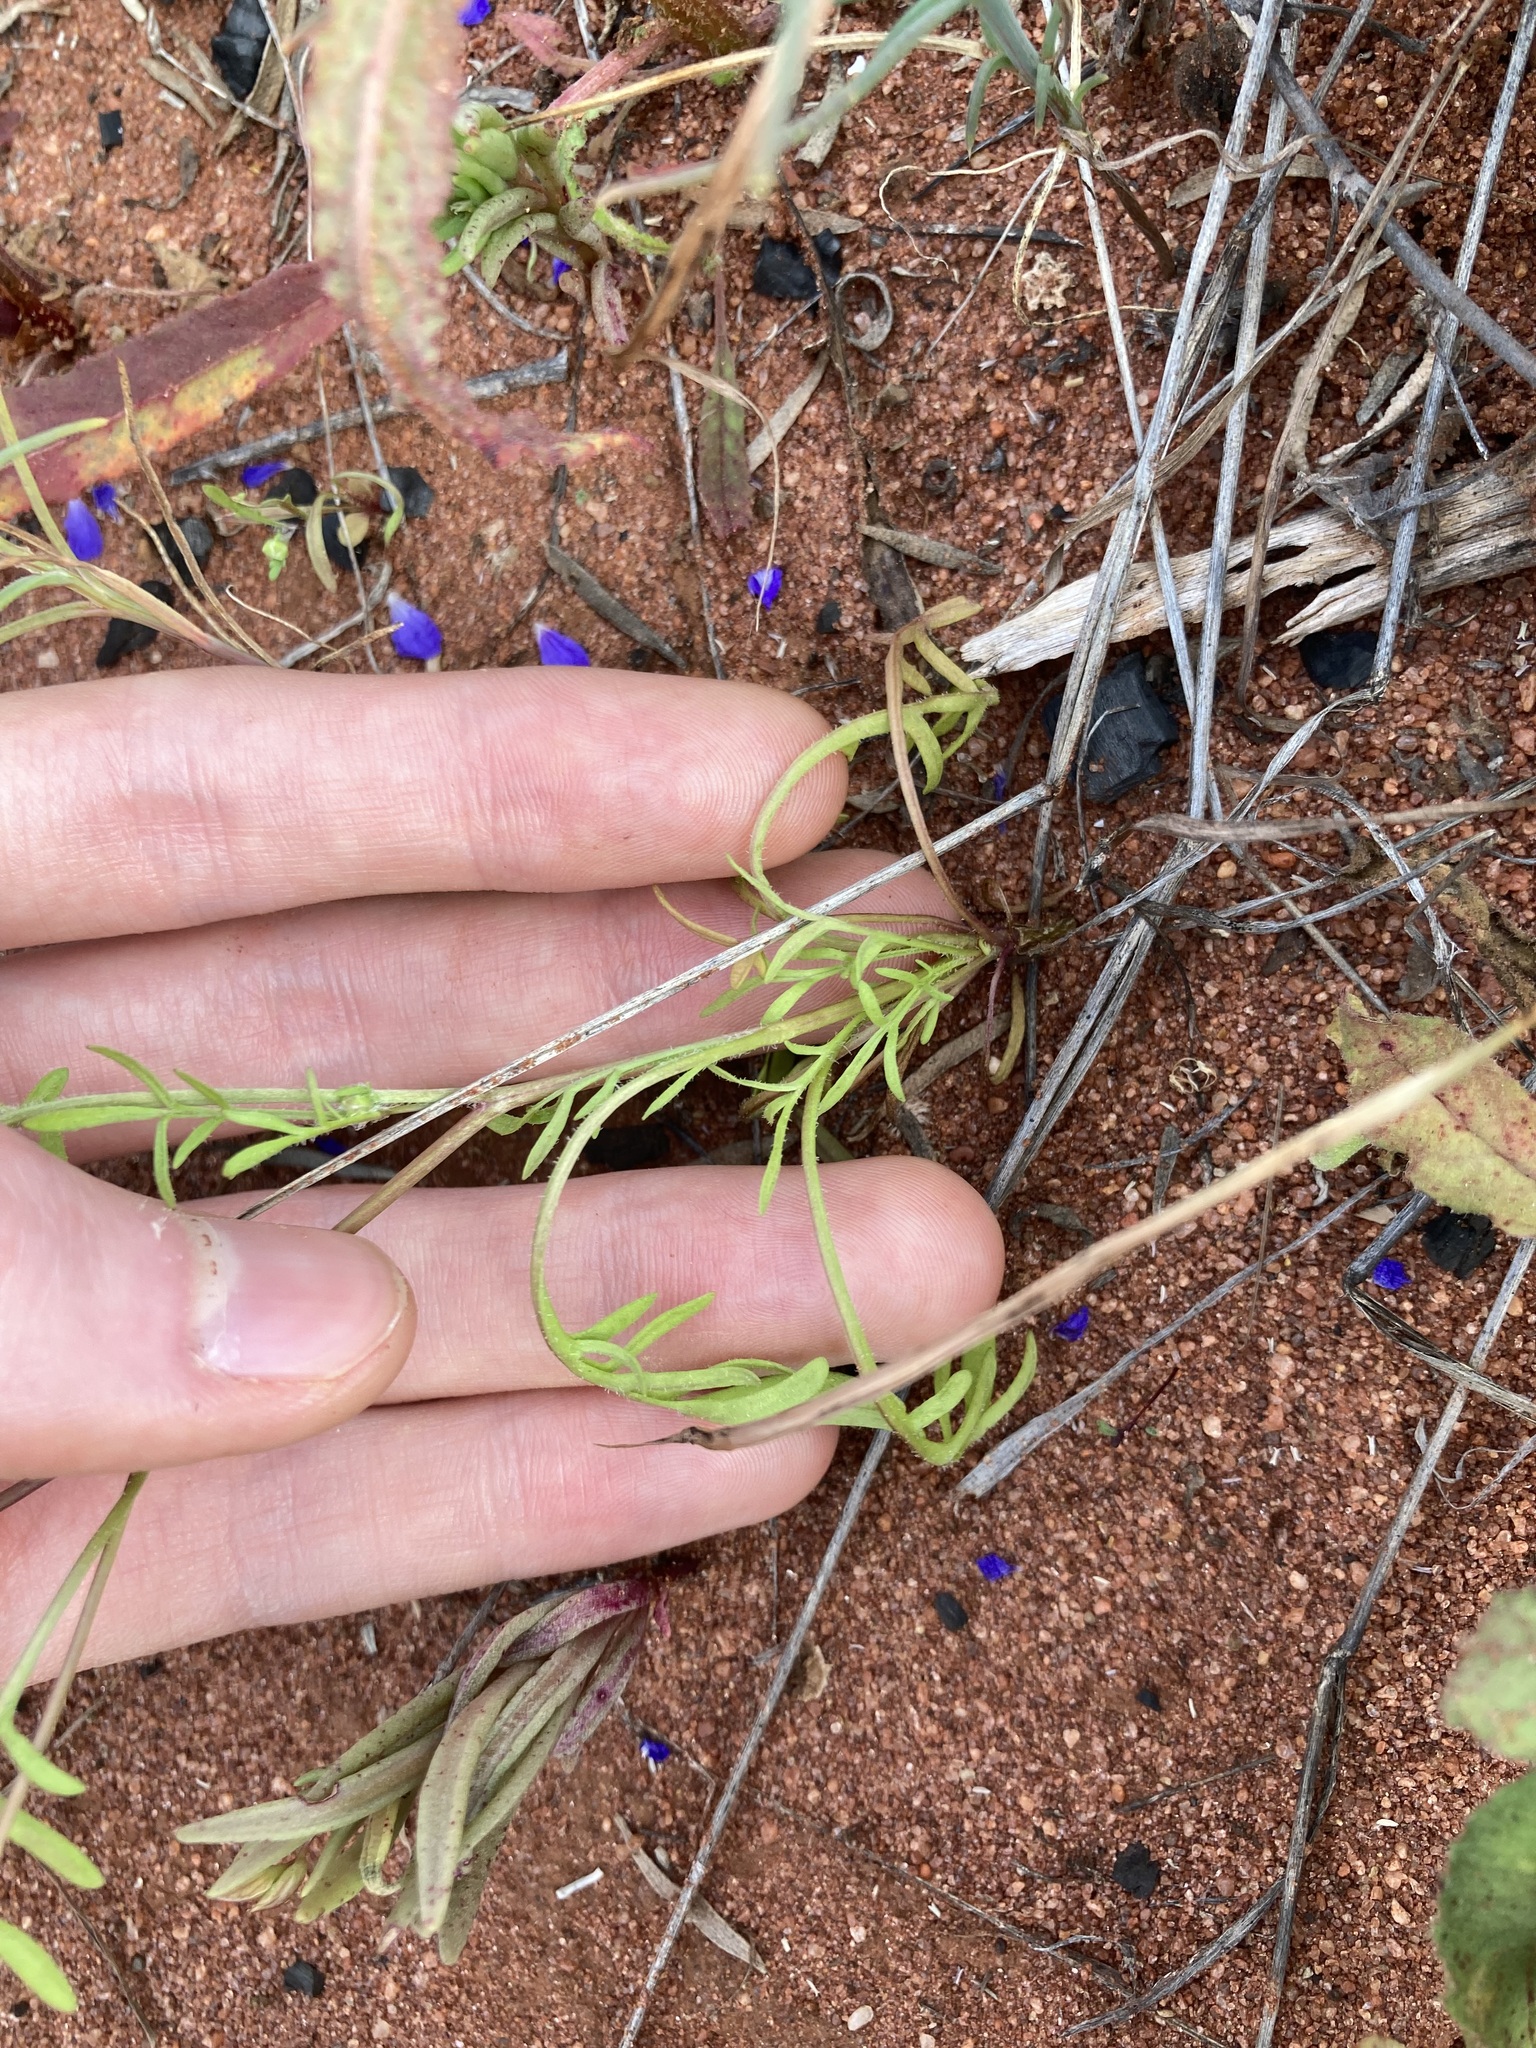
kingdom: Plantae
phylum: Tracheophyta
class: Magnoliopsida
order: Asterales
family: Asteraceae
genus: Roebuckiella
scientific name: Roebuckiella cheilocarpa
